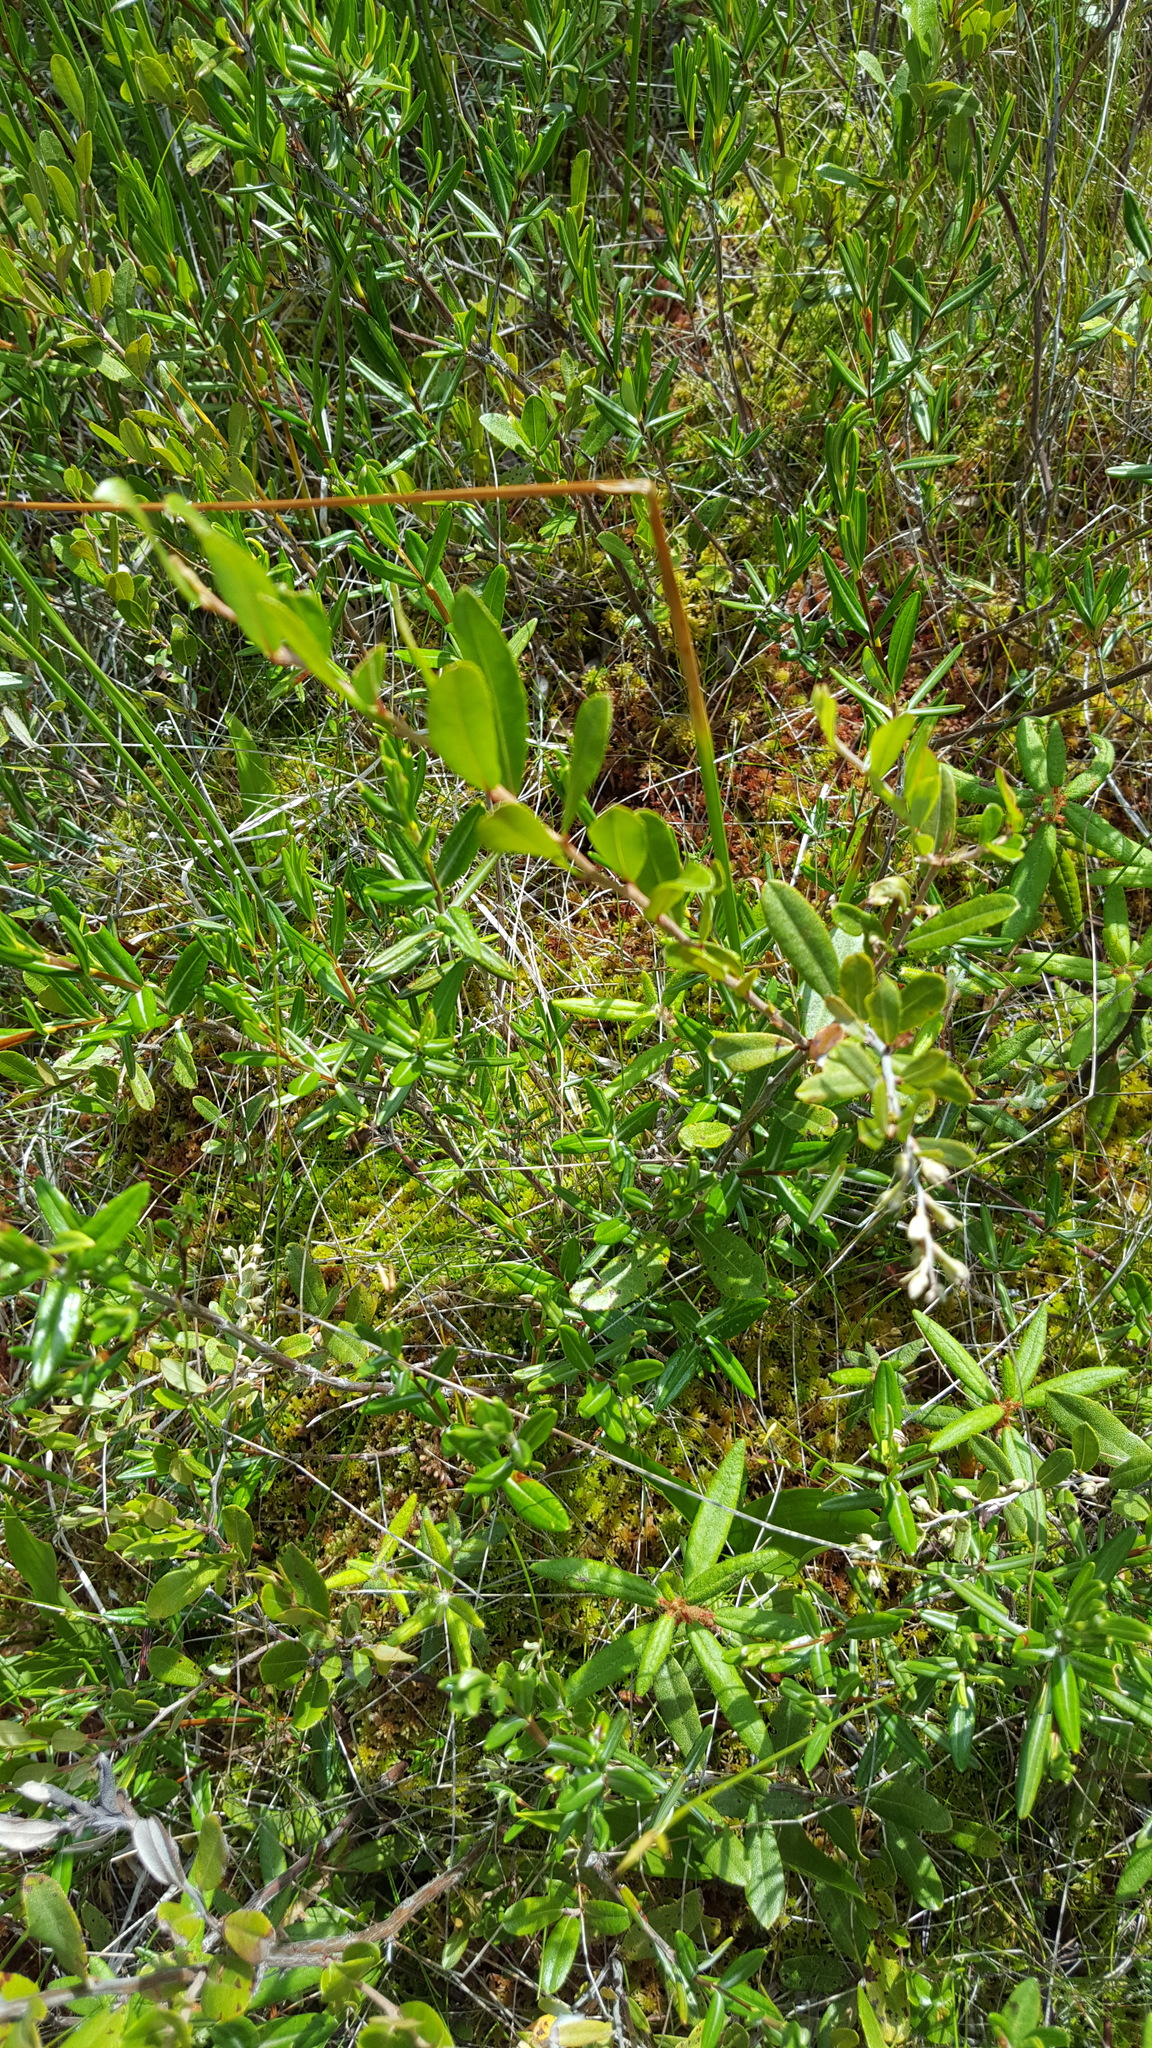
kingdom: Plantae
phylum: Tracheophyta
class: Magnoliopsida
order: Ericales
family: Ericaceae
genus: Chamaedaphne
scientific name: Chamaedaphne calyculata
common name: Leatherleaf
